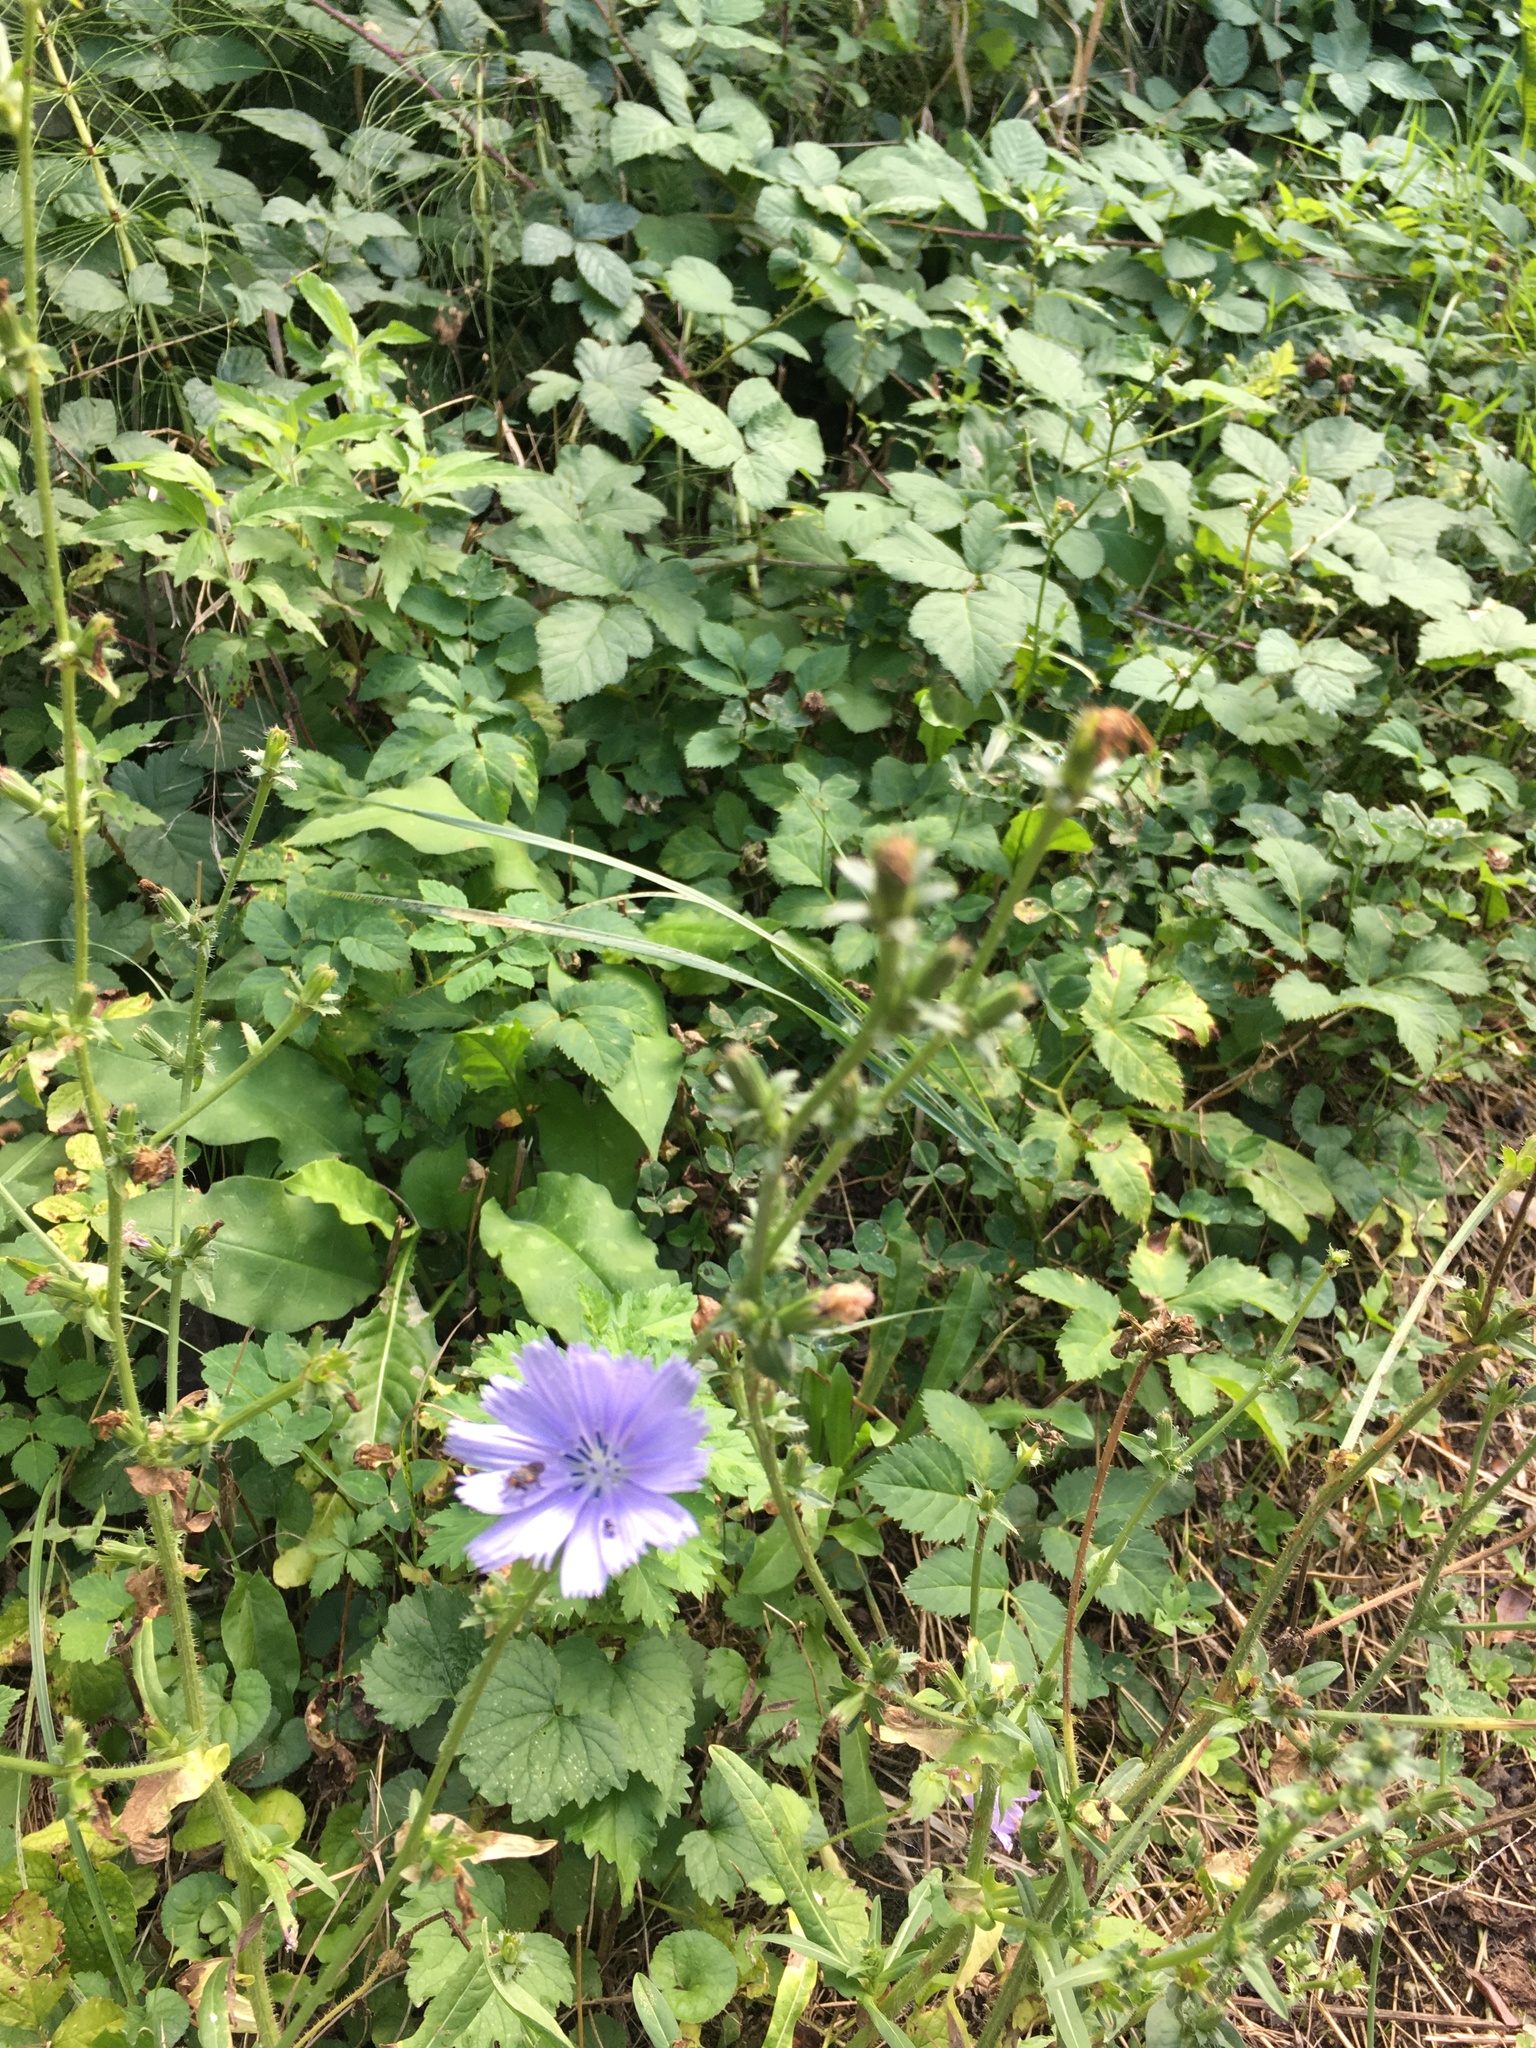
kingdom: Plantae
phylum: Tracheophyta
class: Magnoliopsida
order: Asterales
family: Asteraceae
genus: Cichorium
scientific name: Cichorium intybus
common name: Chicory
